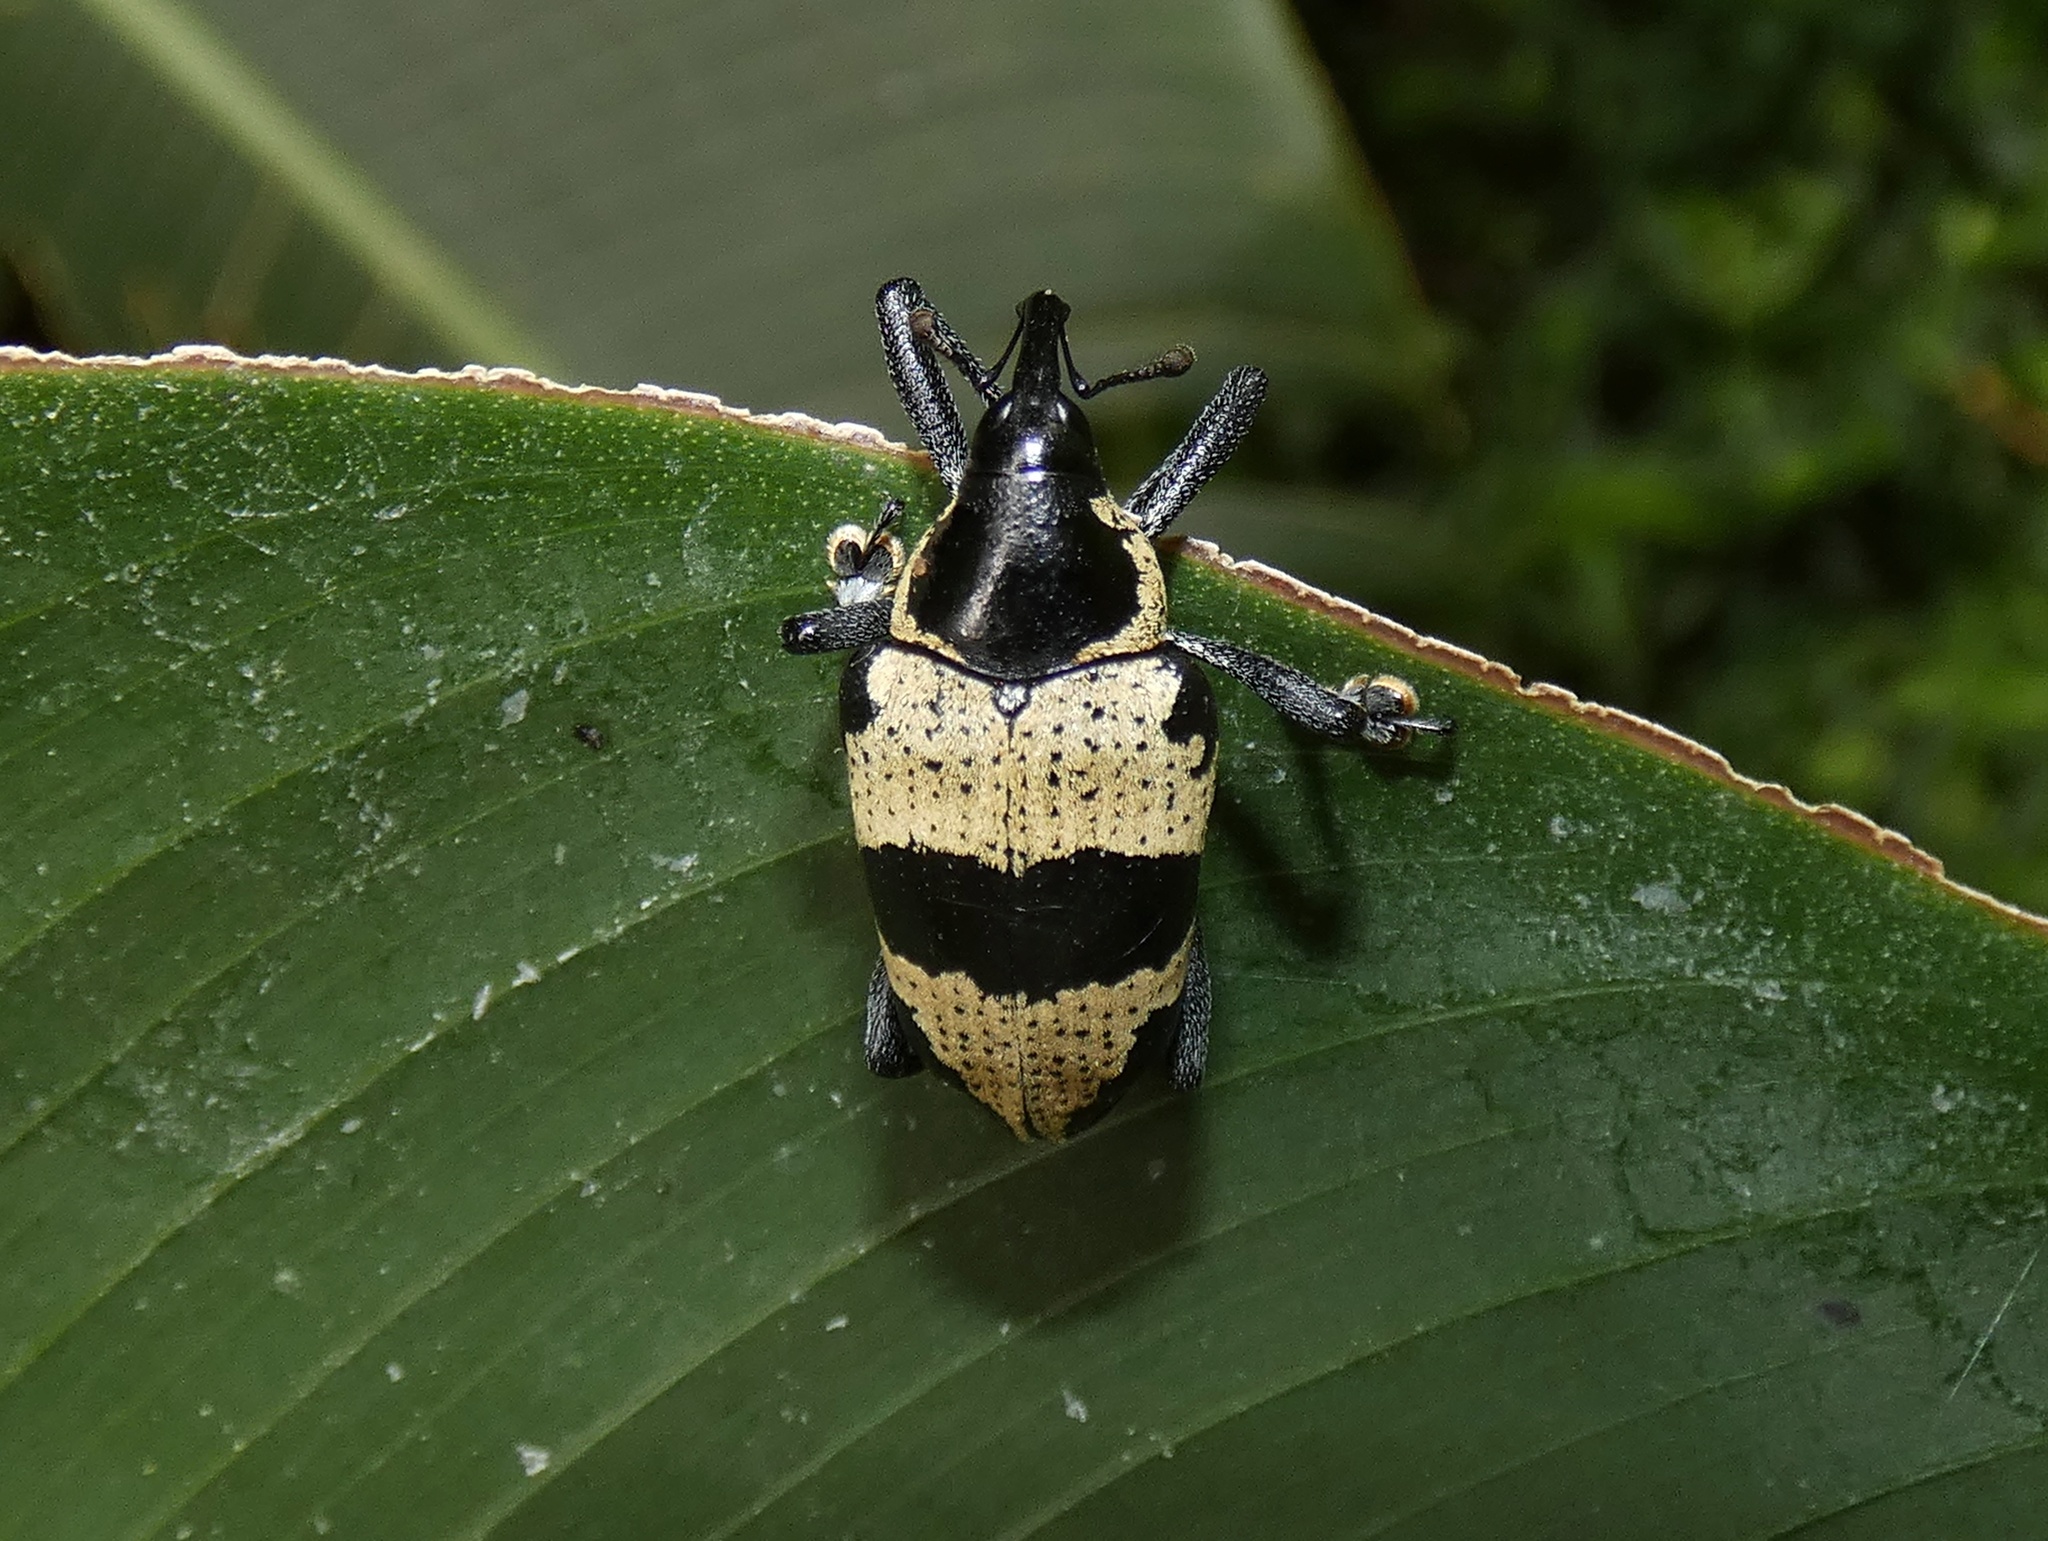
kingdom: Animalia
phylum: Arthropoda
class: Insecta
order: Coleoptera
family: Curculionidae
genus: Cholus
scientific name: Cholus praetorius
